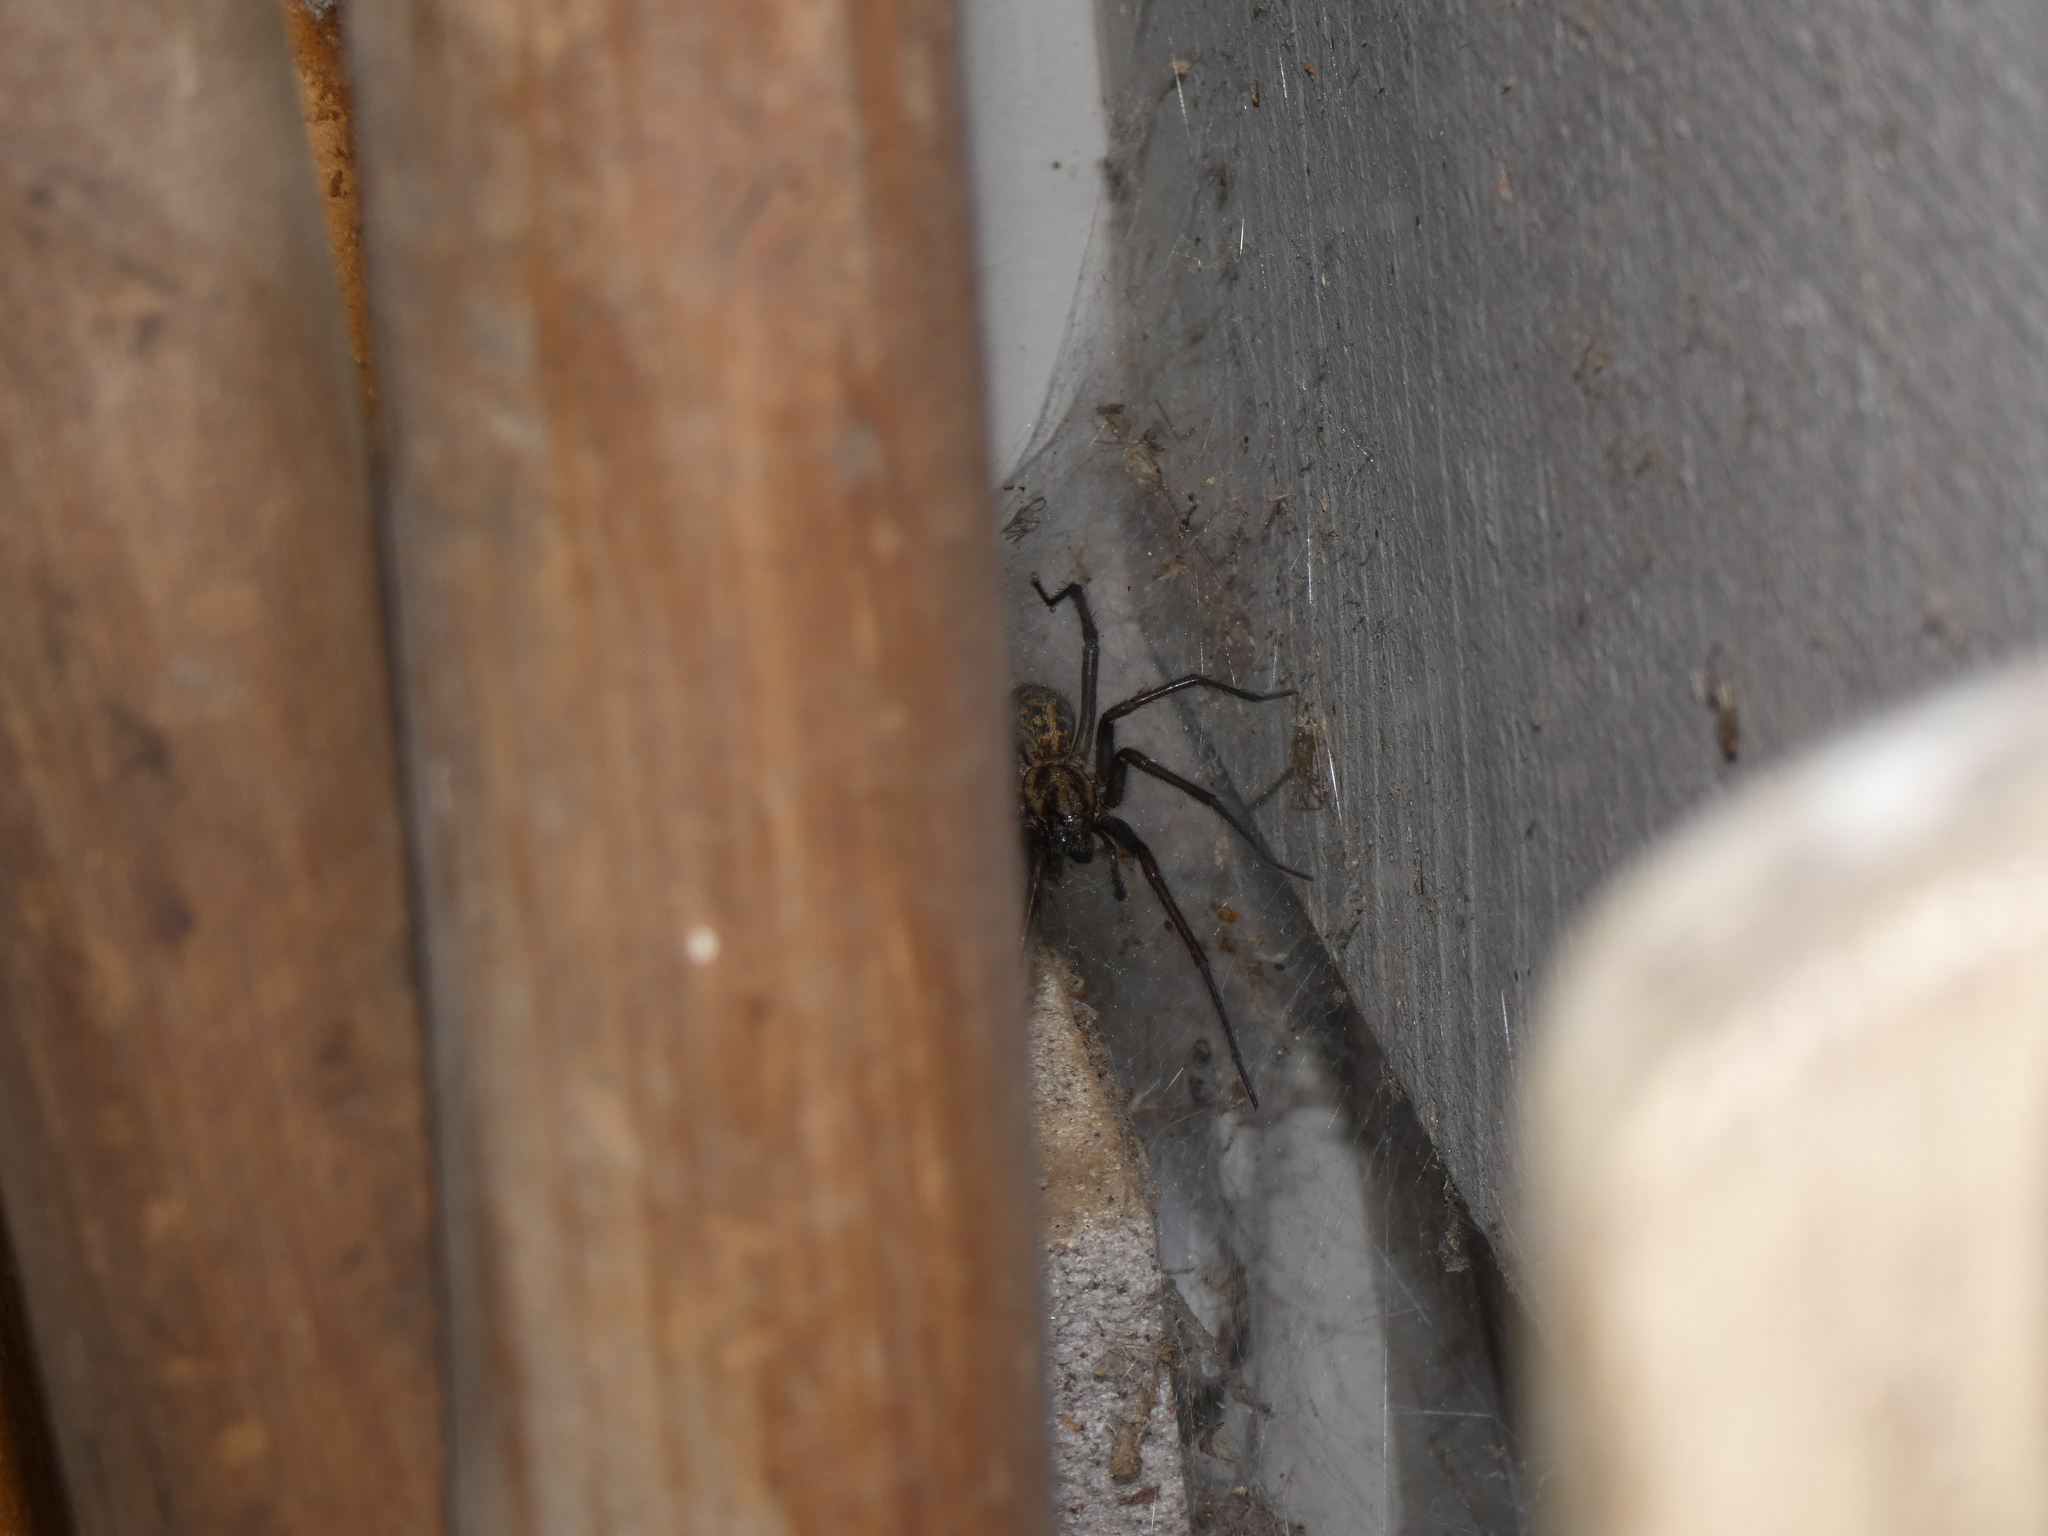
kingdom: Animalia
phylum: Arthropoda
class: Arachnida
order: Araneae
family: Agelenidae
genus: Eratigena
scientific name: Eratigena duellica
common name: Giant house spider
